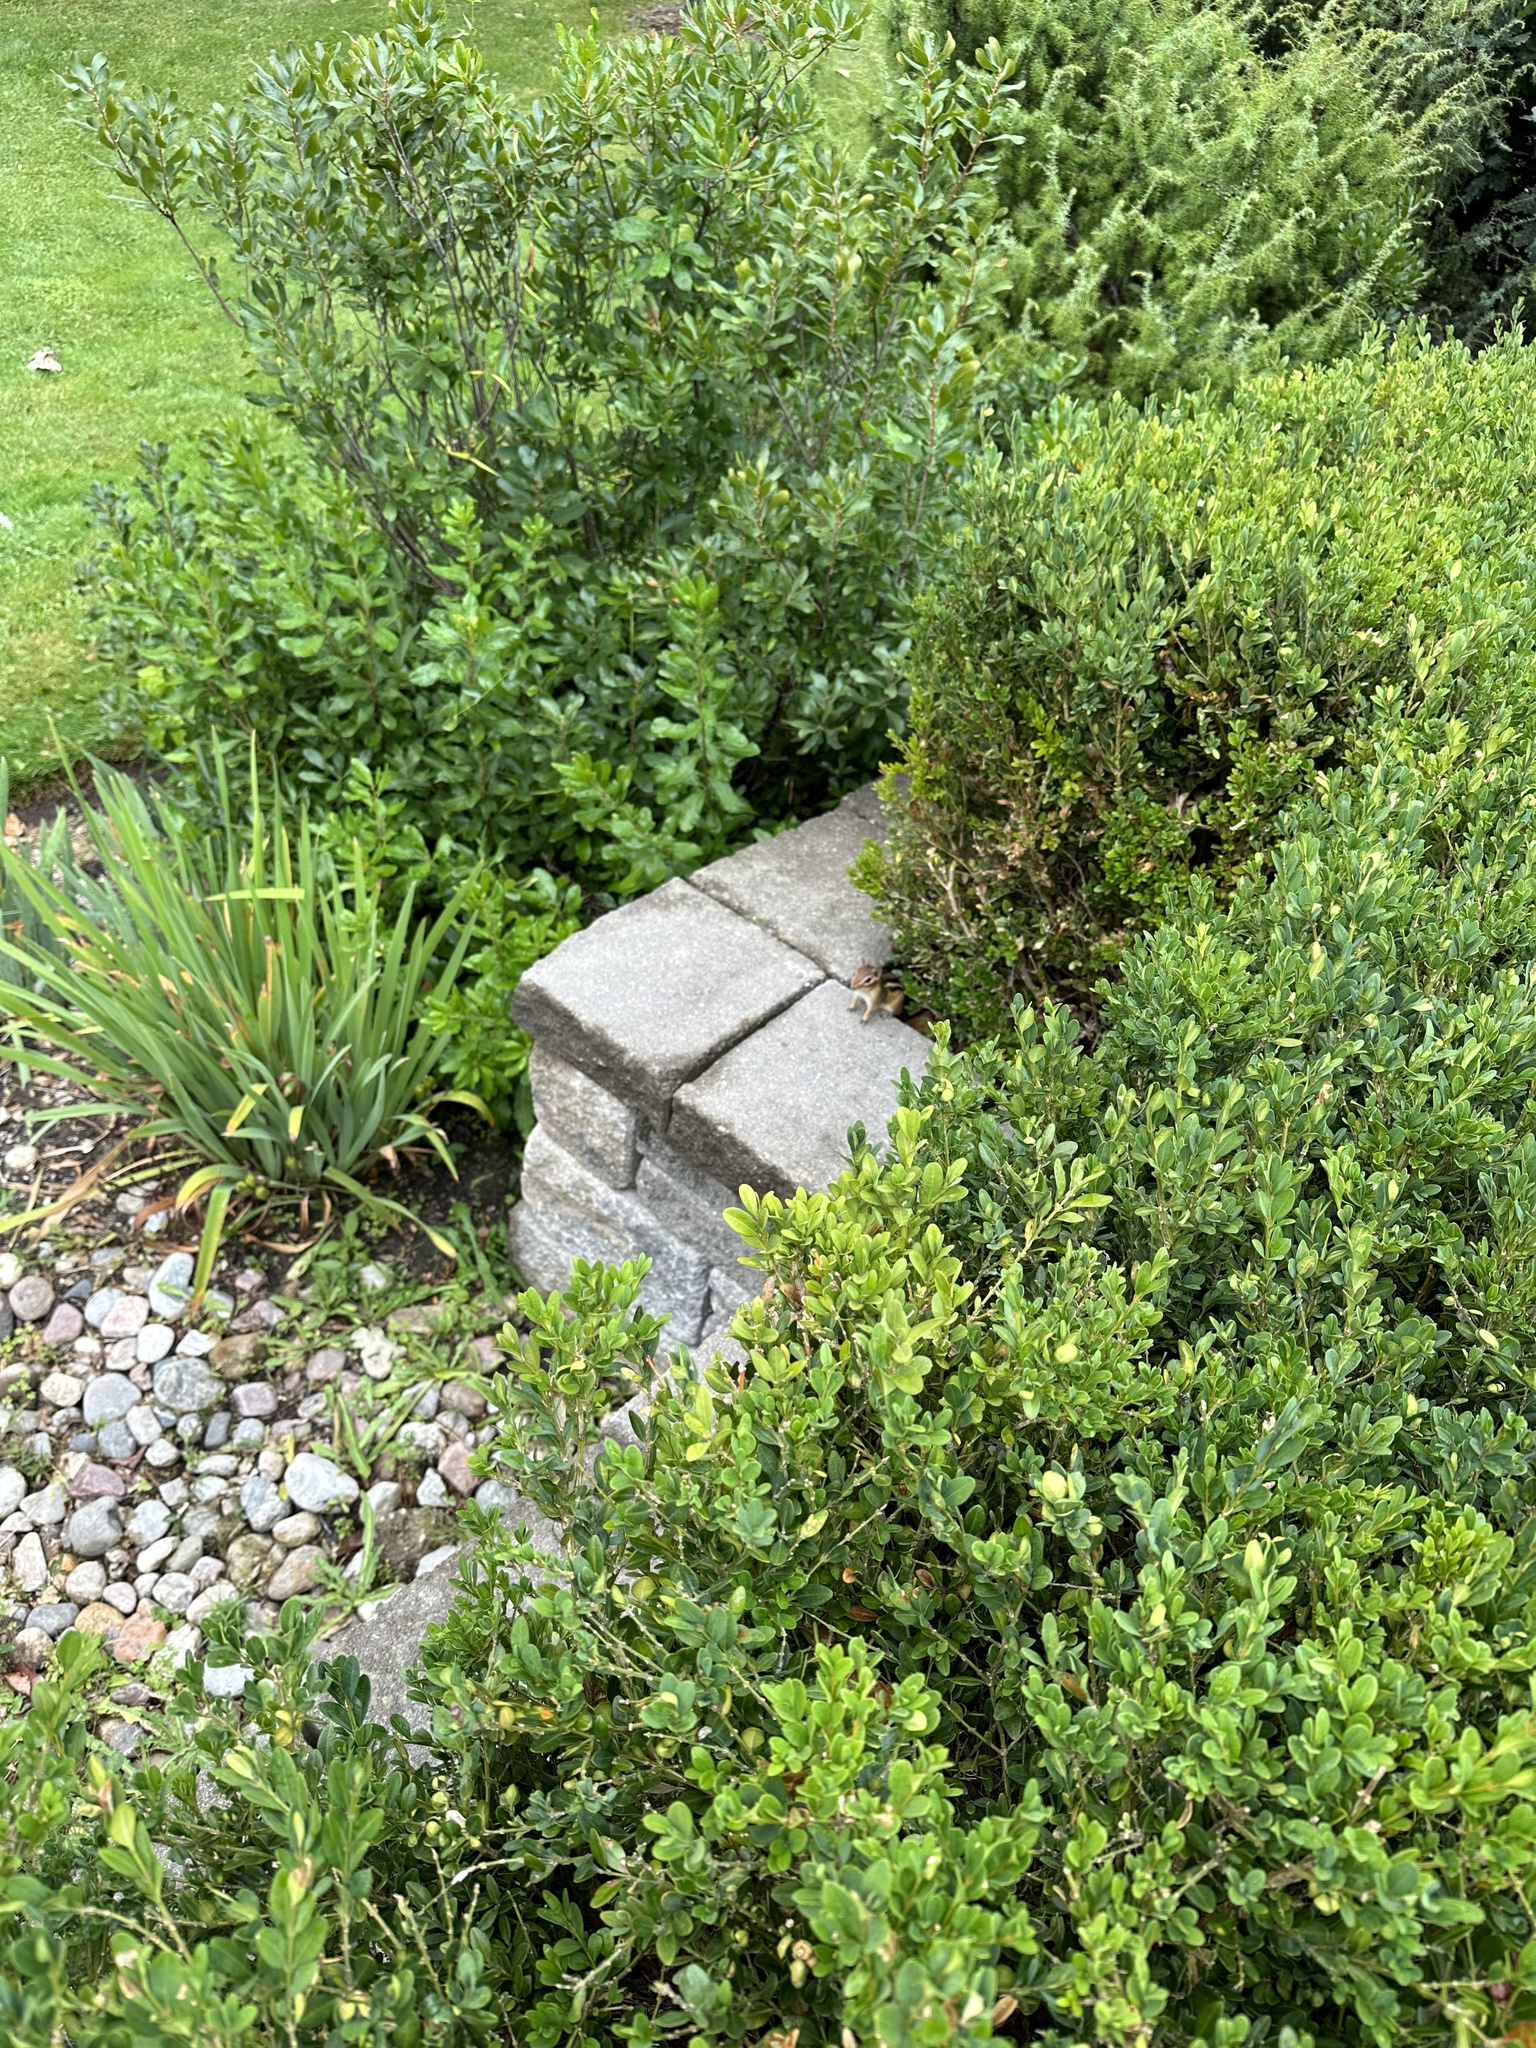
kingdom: Animalia
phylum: Chordata
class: Mammalia
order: Rodentia
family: Sciuridae
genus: Tamias
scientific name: Tamias striatus
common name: Eastern chipmunk
